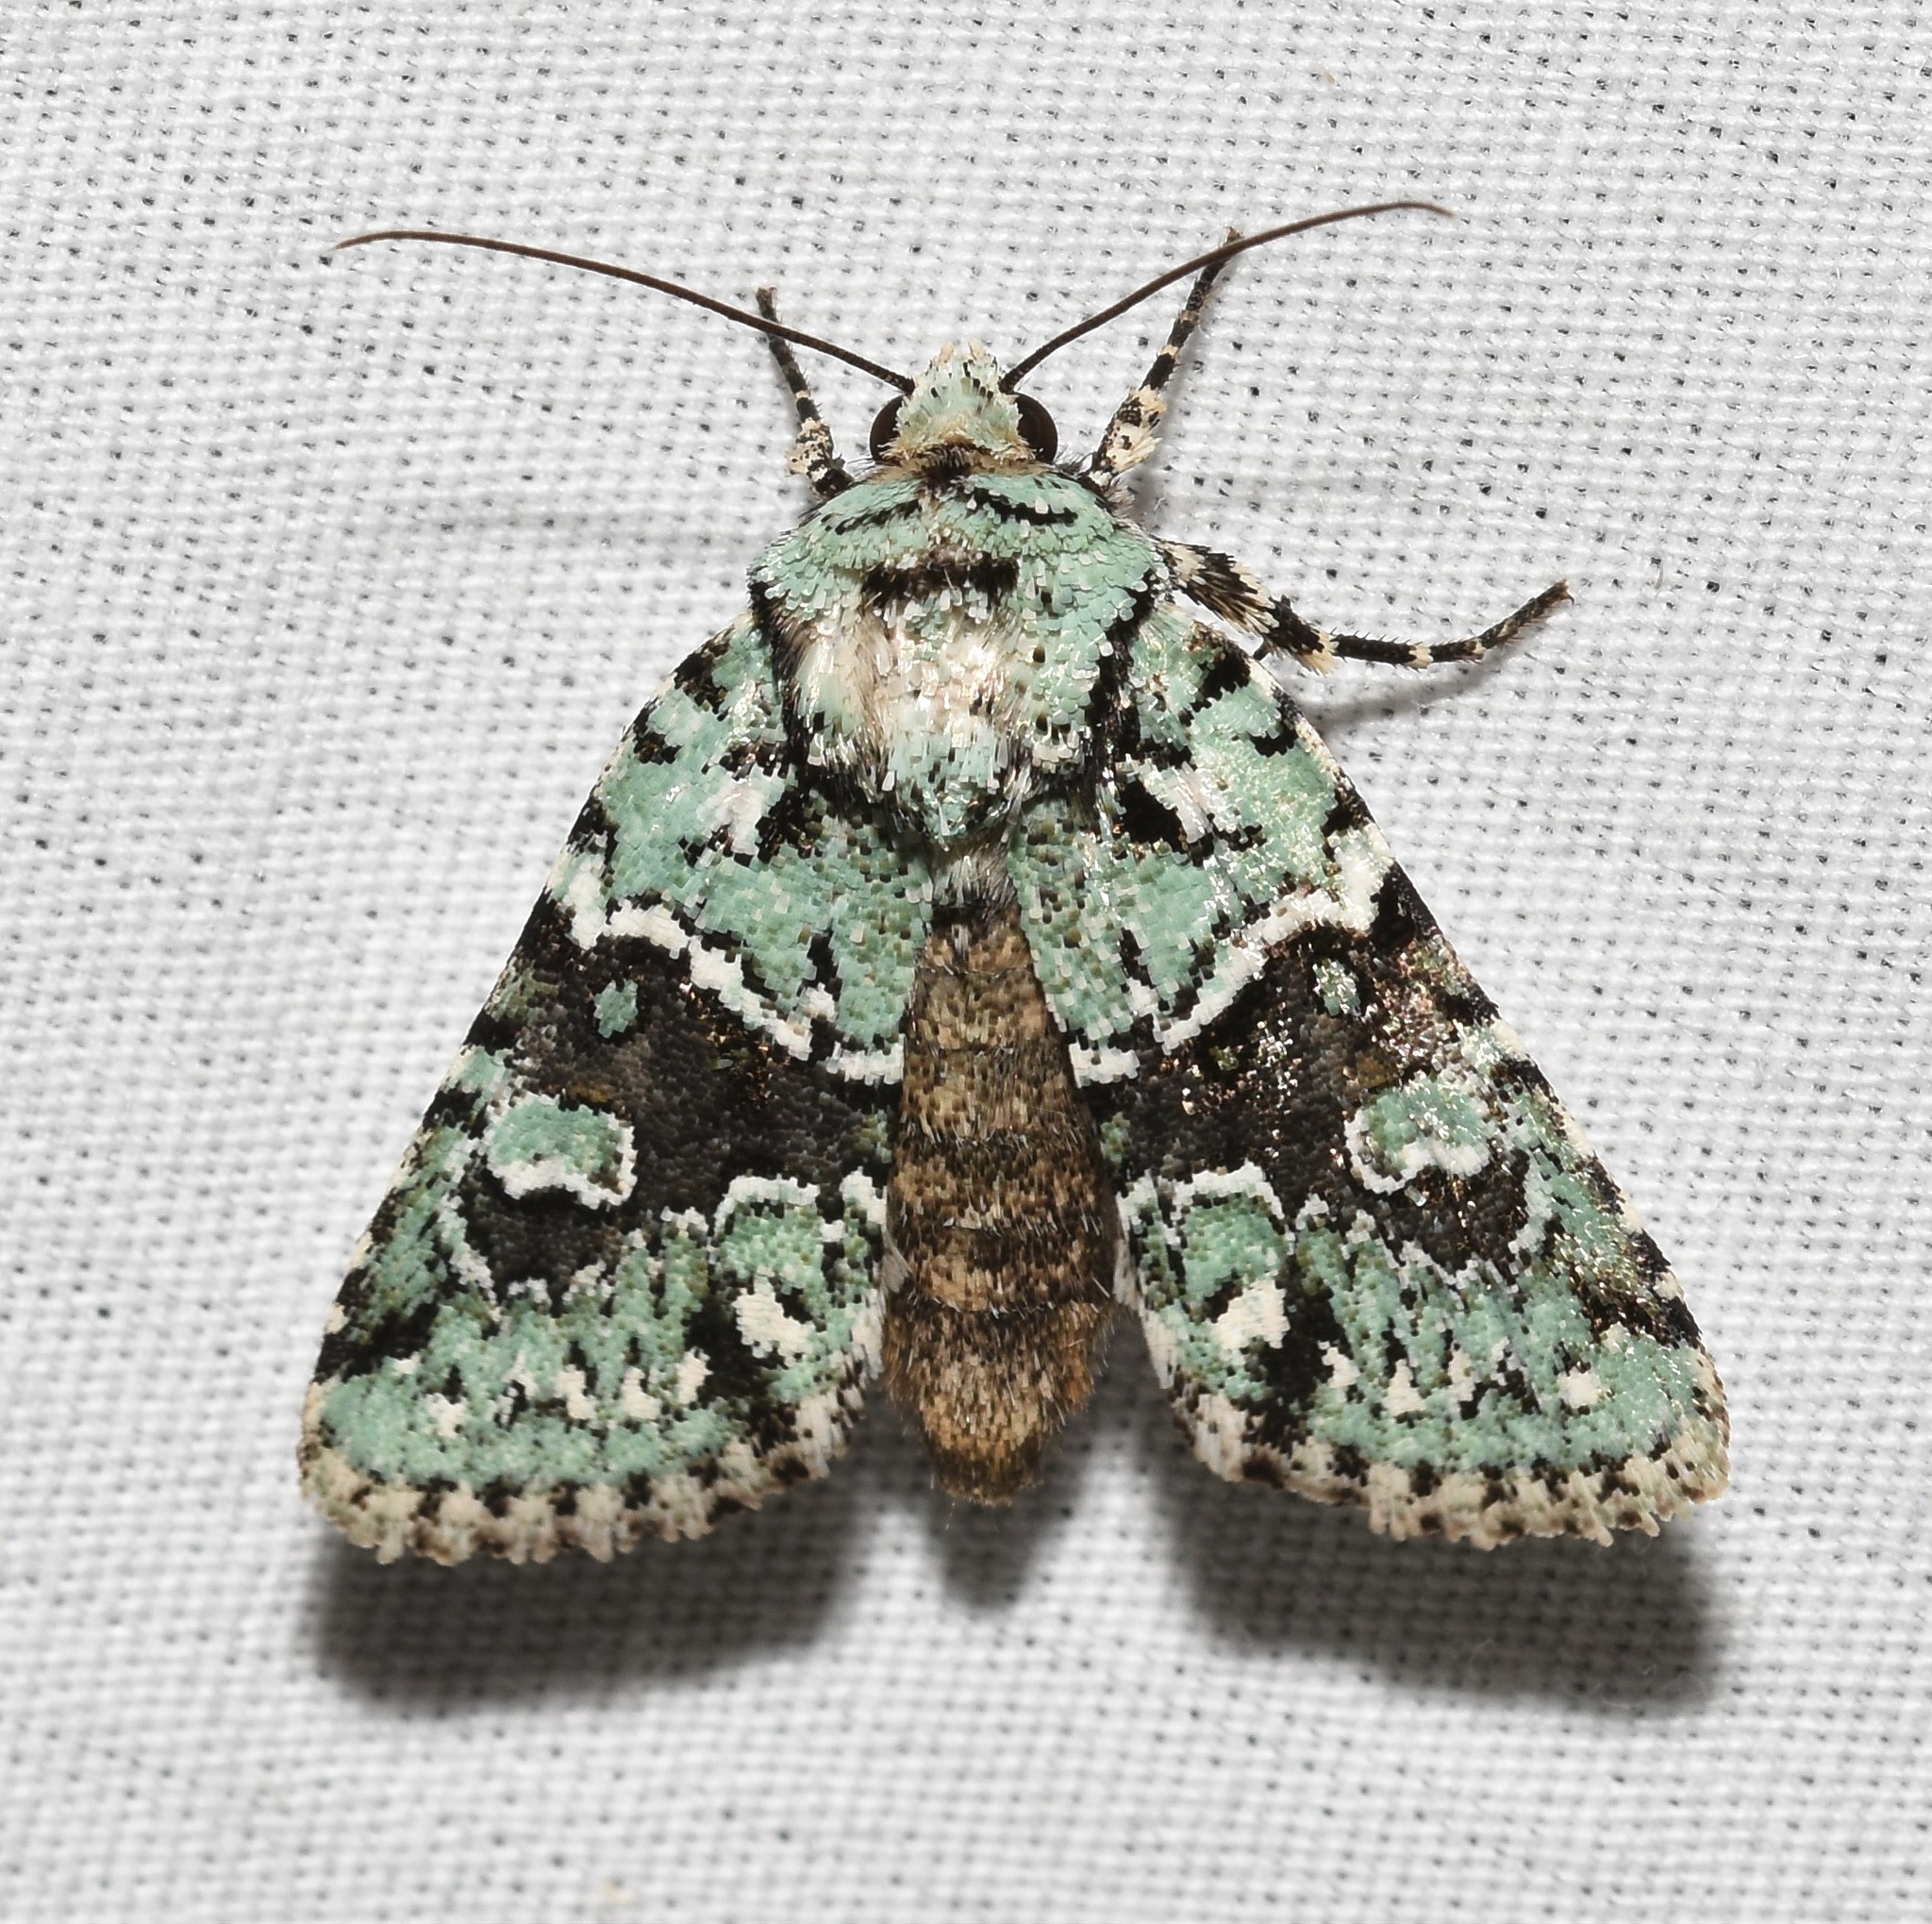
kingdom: Animalia
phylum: Arthropoda
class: Insecta
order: Lepidoptera
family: Noctuidae
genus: Lacinipolia
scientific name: Lacinipolia implicata
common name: Implicit arches
